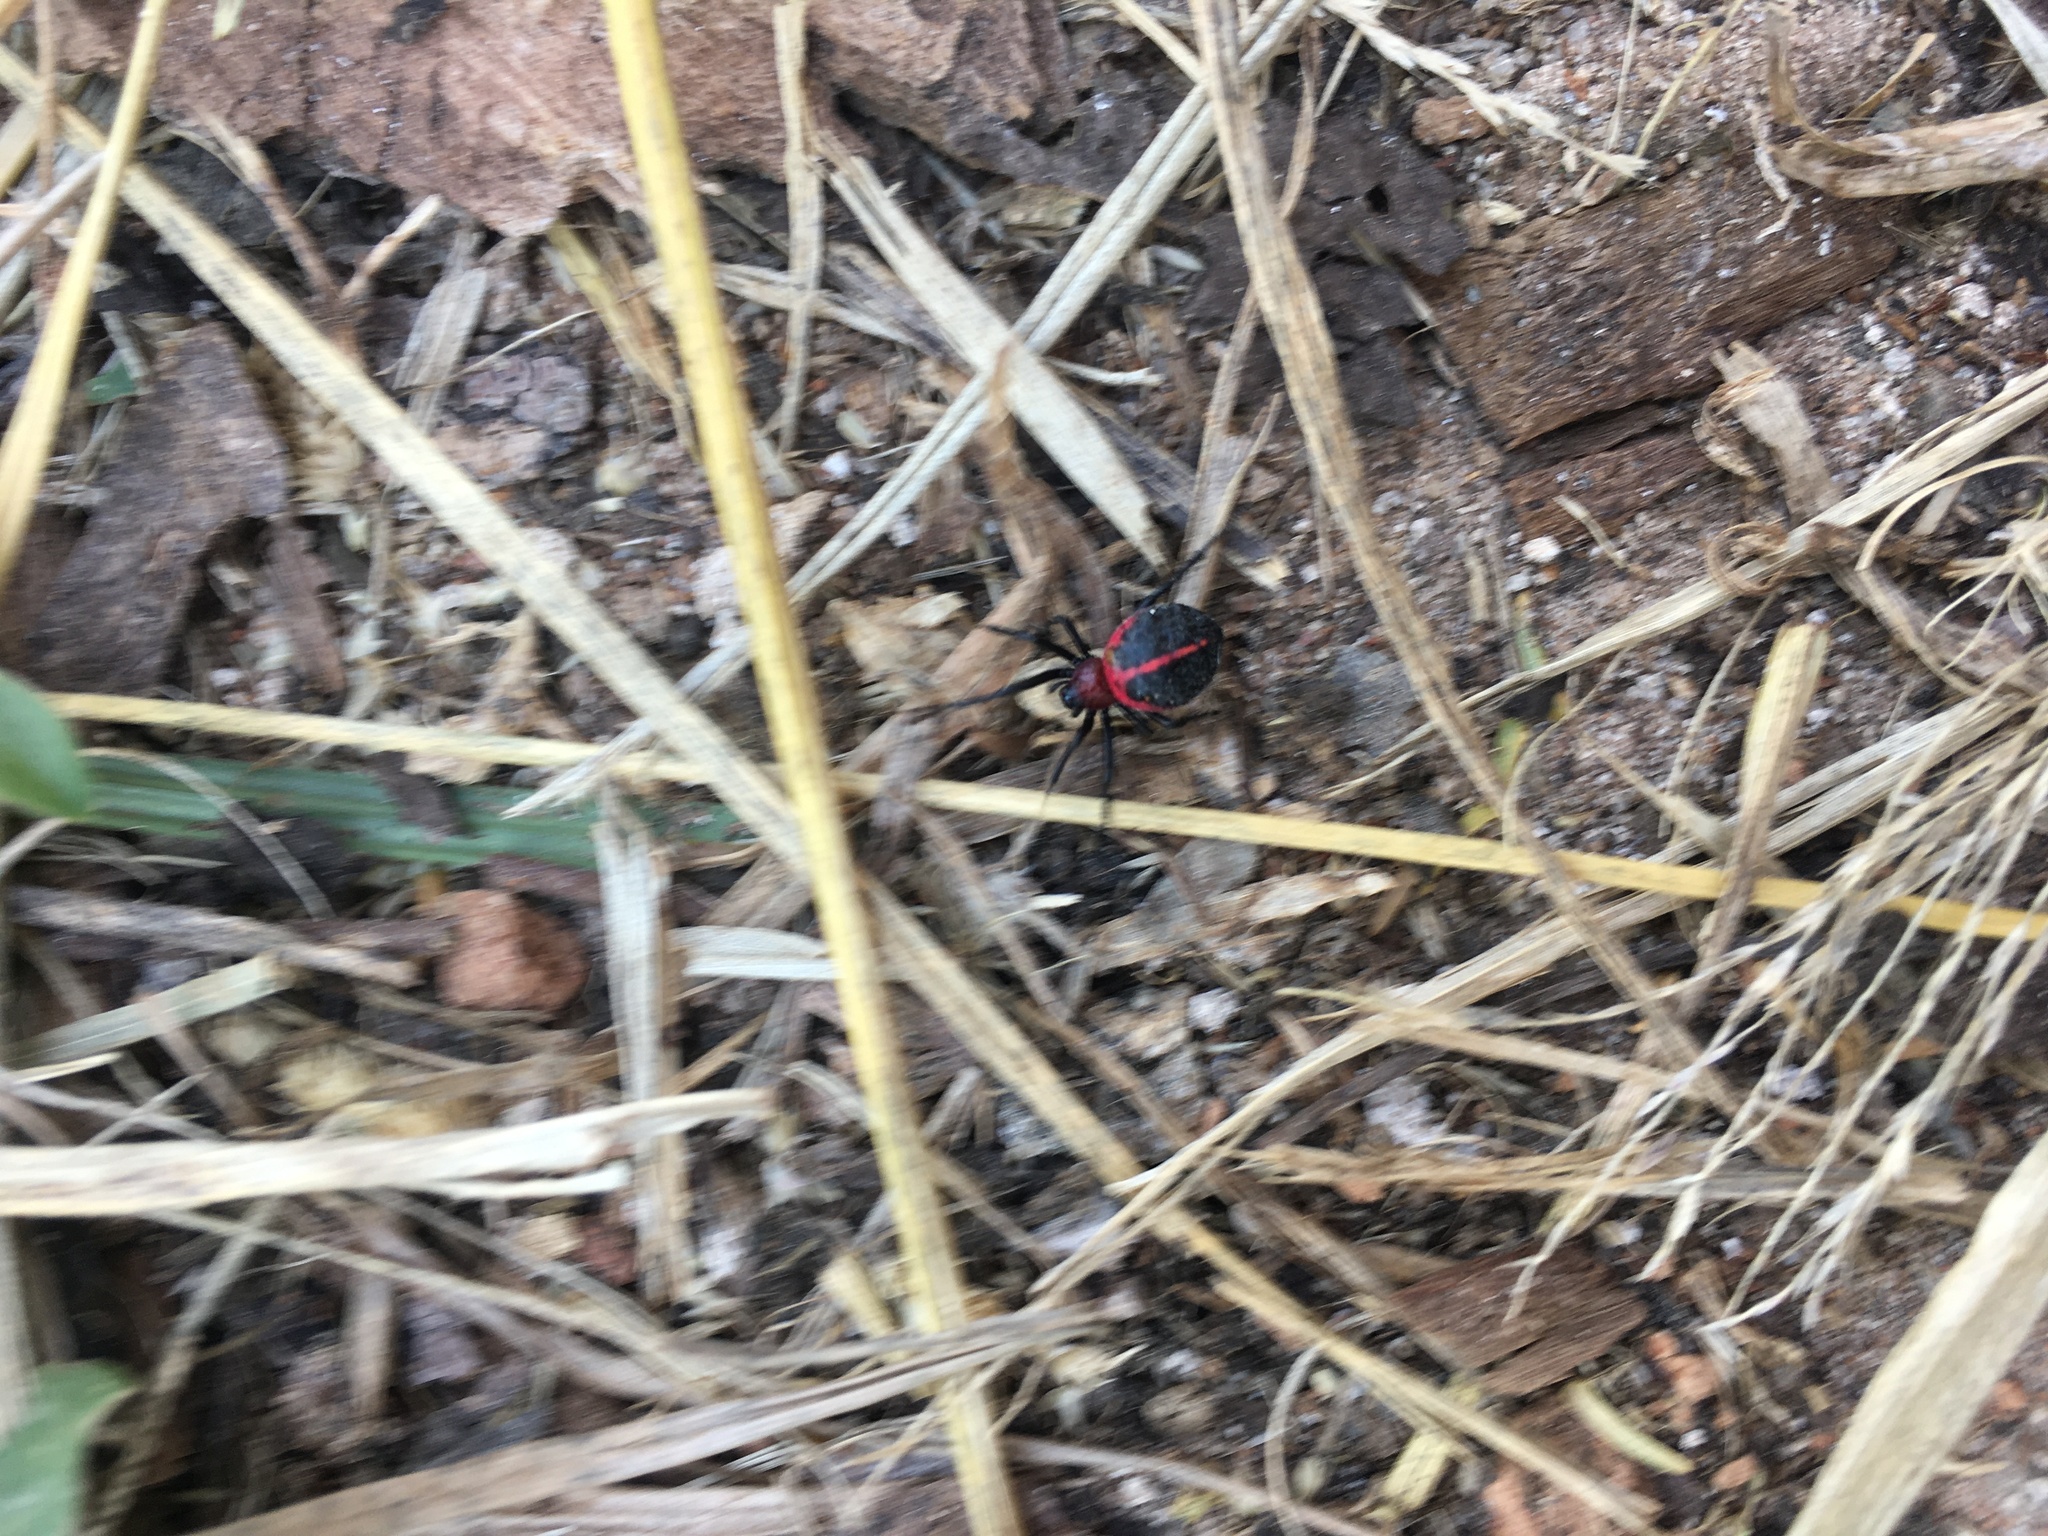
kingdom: Animalia
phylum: Arthropoda
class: Arachnida
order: Araneae
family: Araneidae
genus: Alpaida
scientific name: Alpaida carminea
